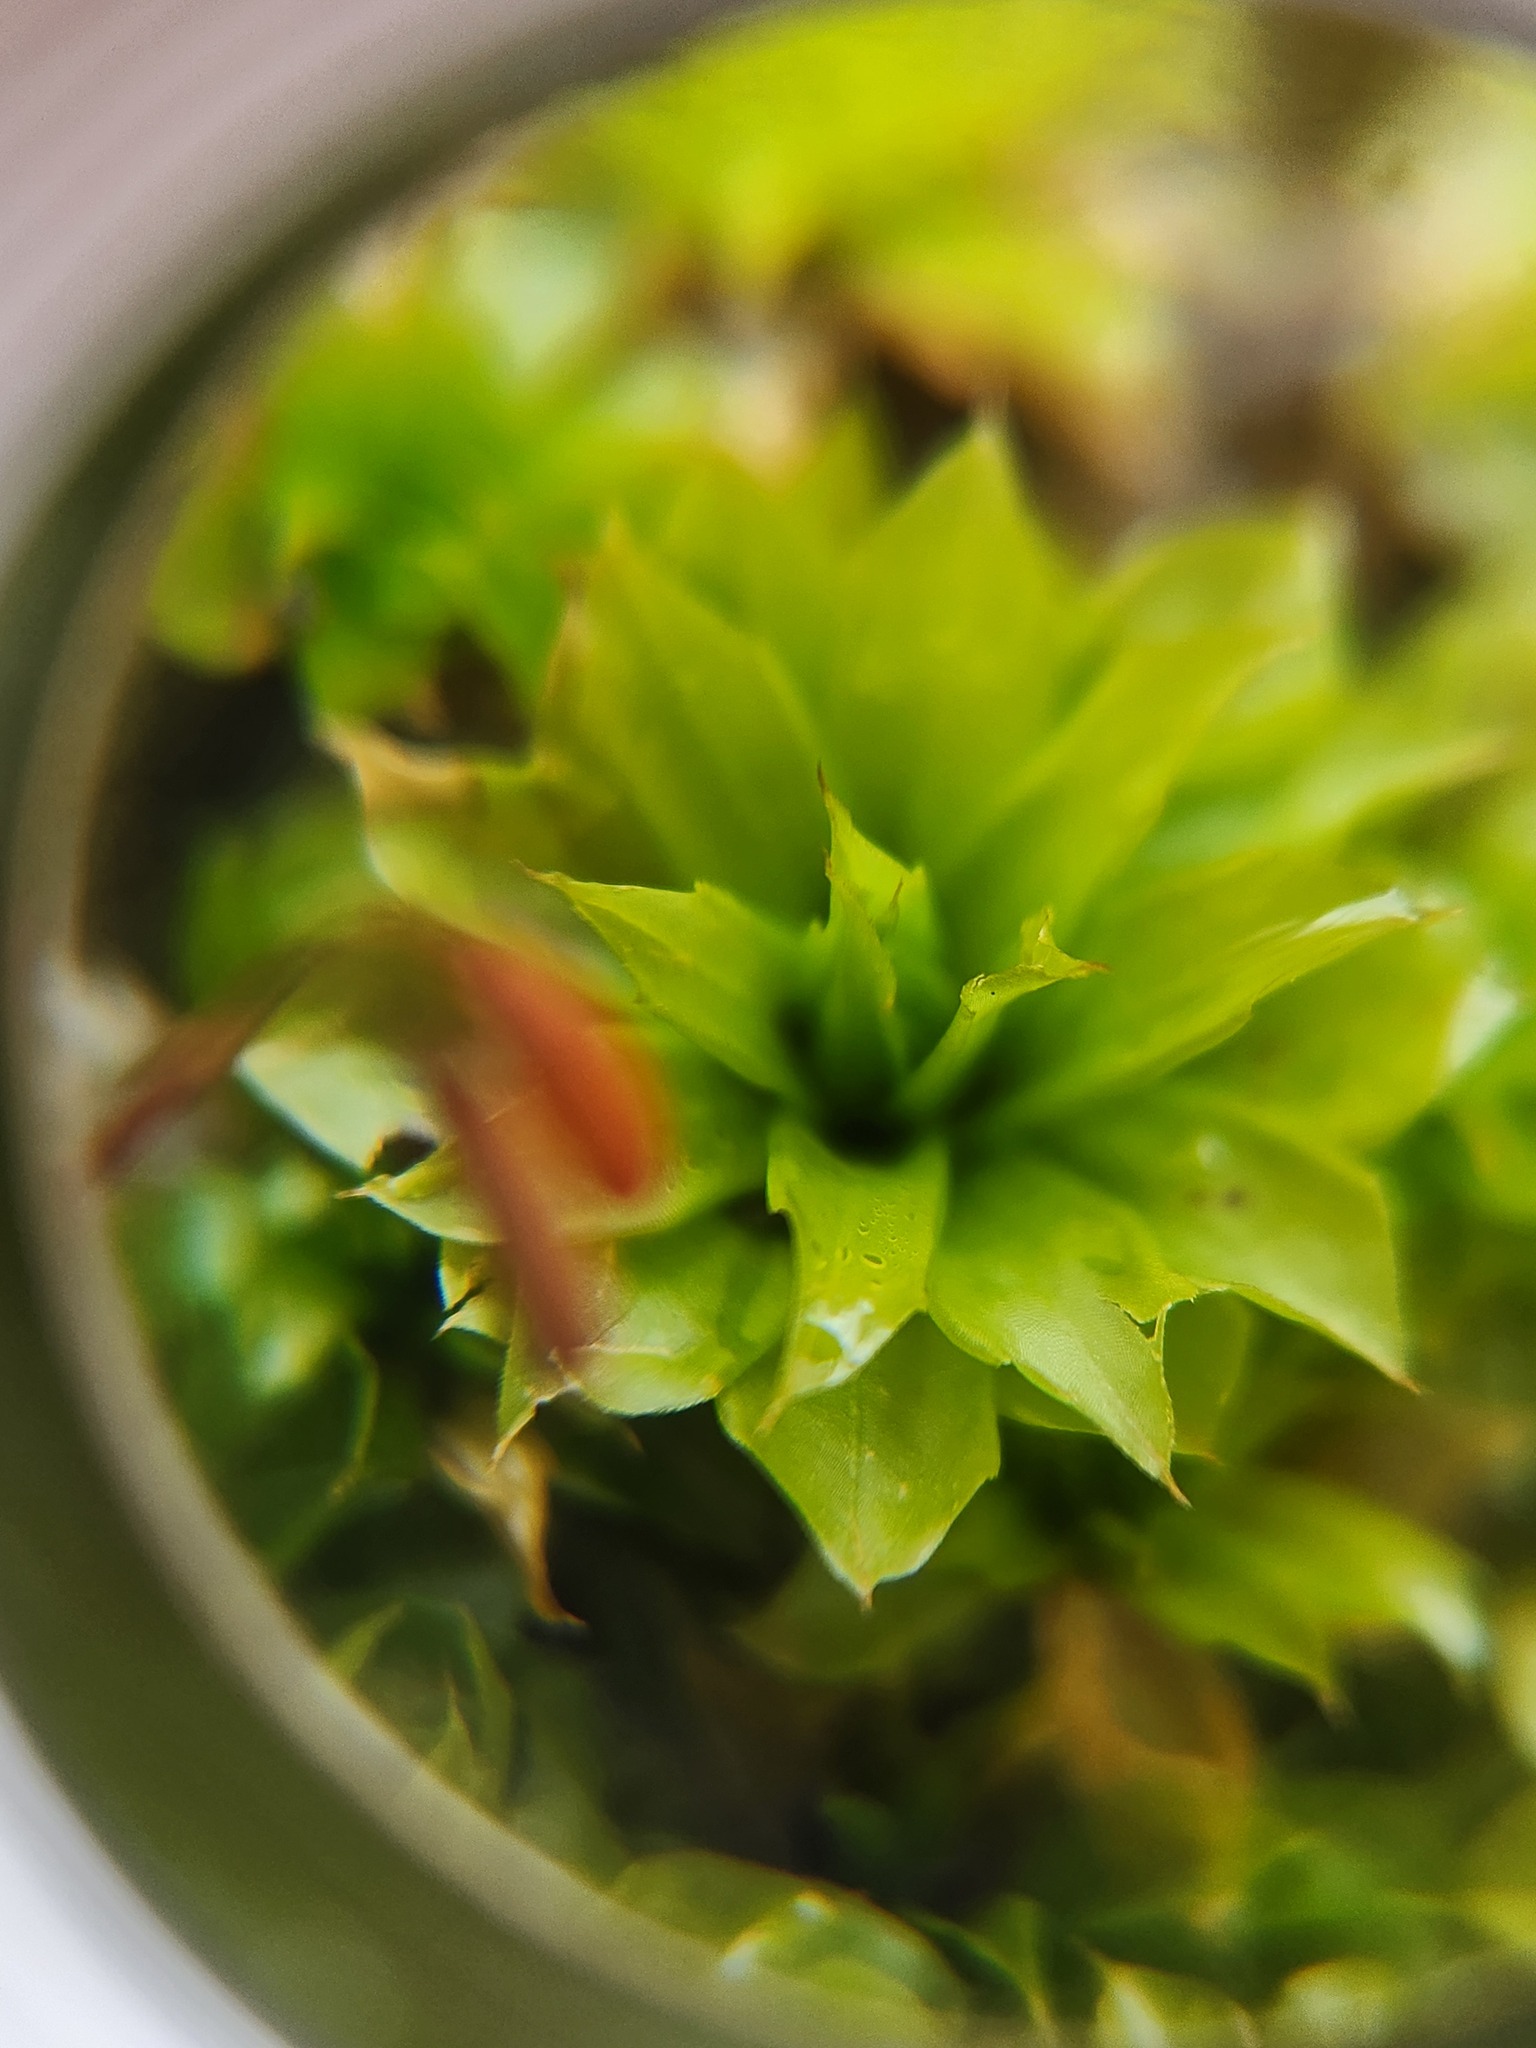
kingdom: Plantae
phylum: Bryophyta
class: Bryopsida
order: Bryales
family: Bryaceae
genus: Rhodobryum
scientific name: Rhodobryum ontariense
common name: Ontario rhodobryum moss
